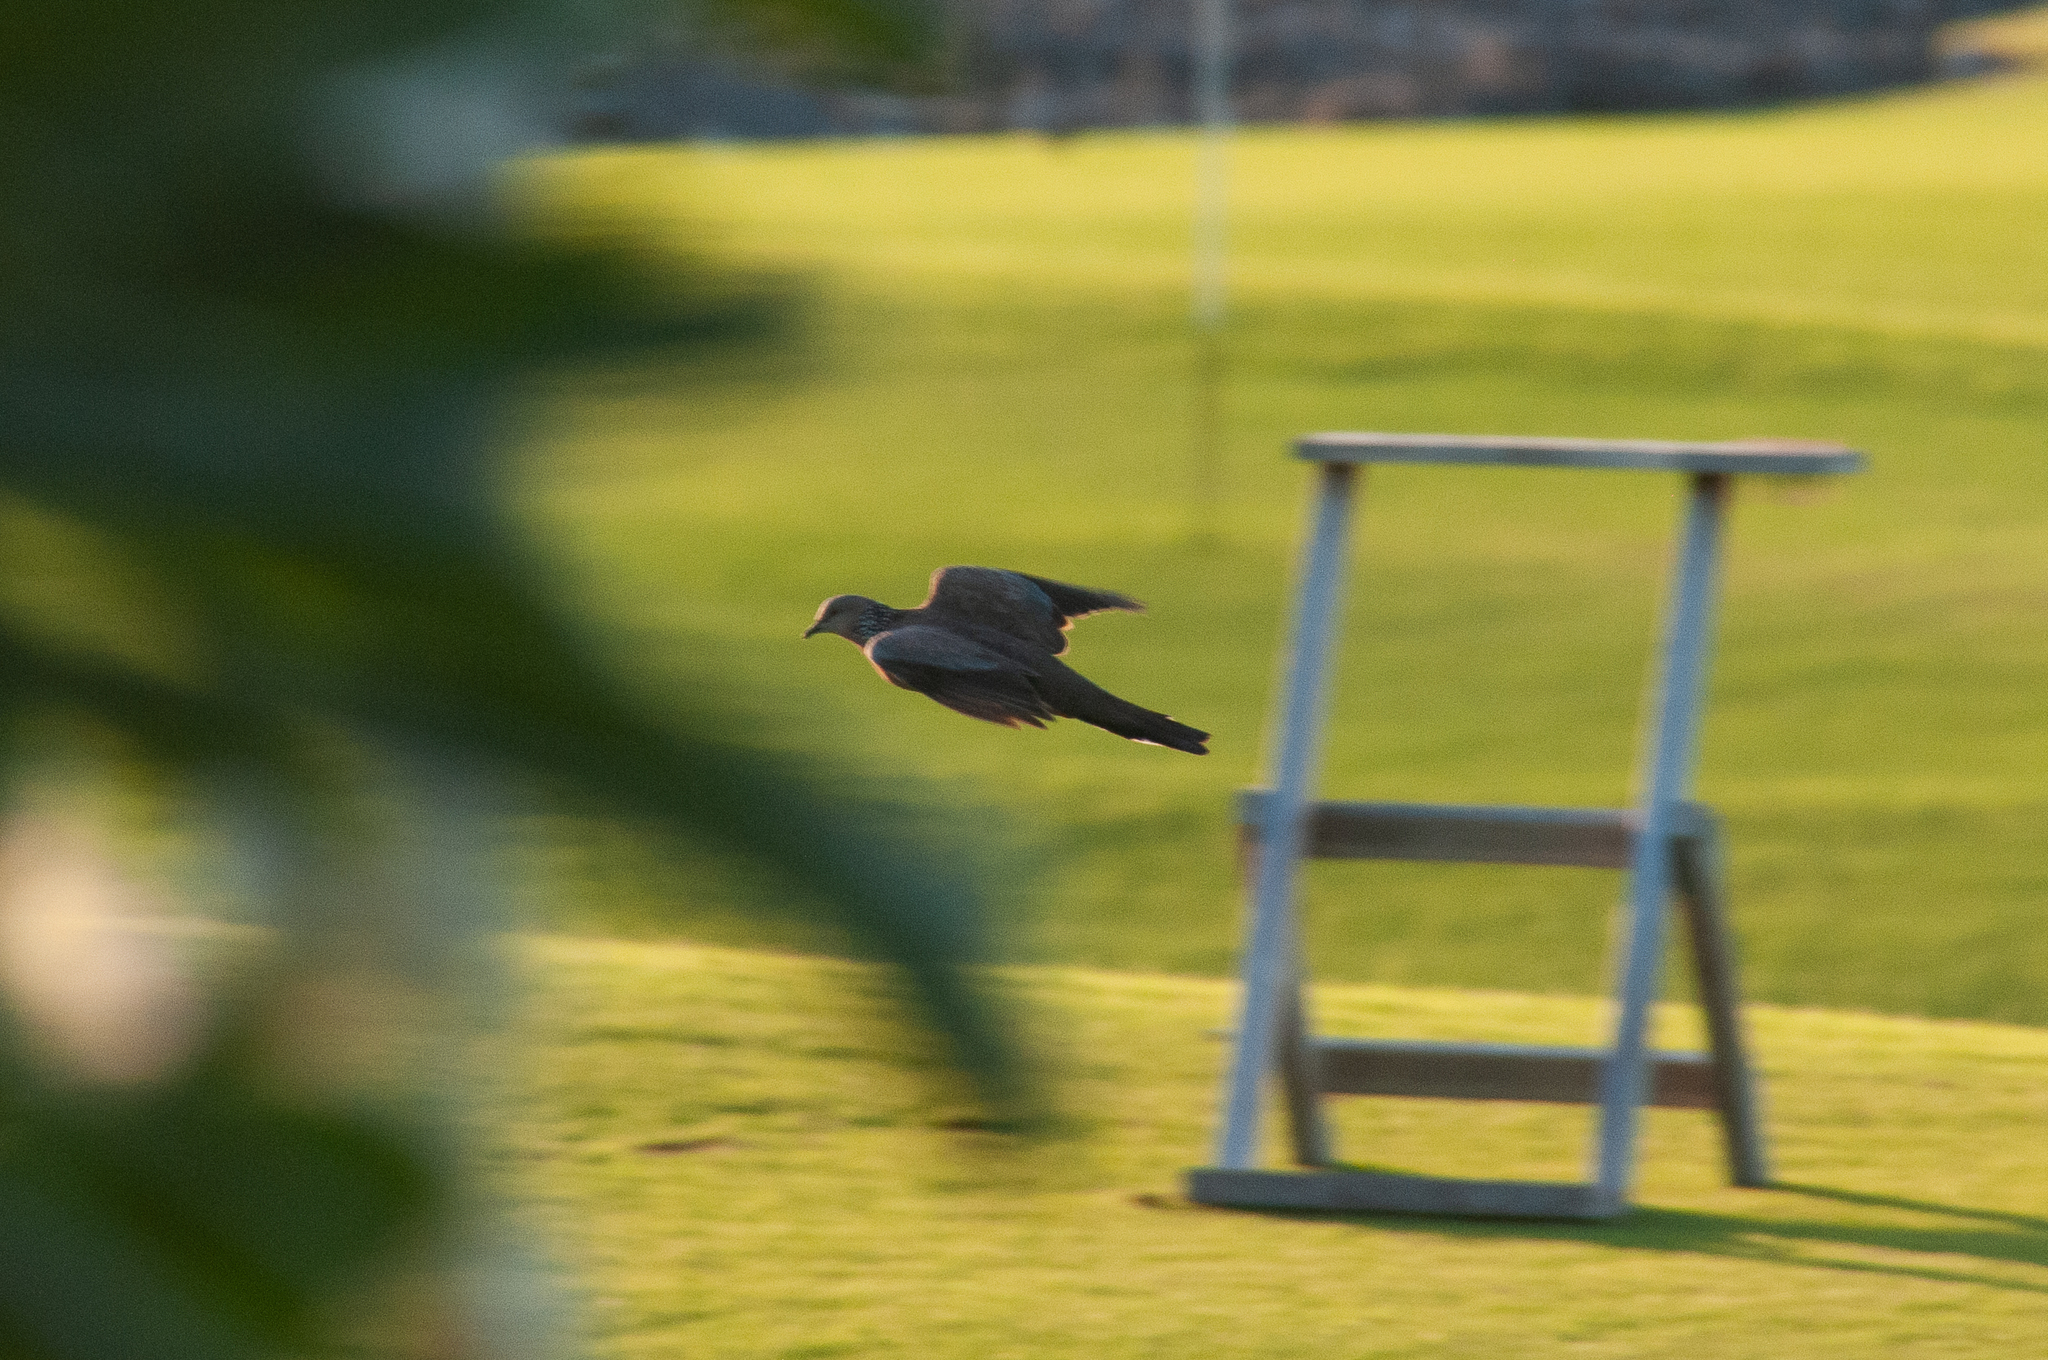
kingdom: Animalia
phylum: Chordata
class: Aves
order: Columbiformes
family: Columbidae
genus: Spilopelia
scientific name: Spilopelia chinensis
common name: Spotted dove
